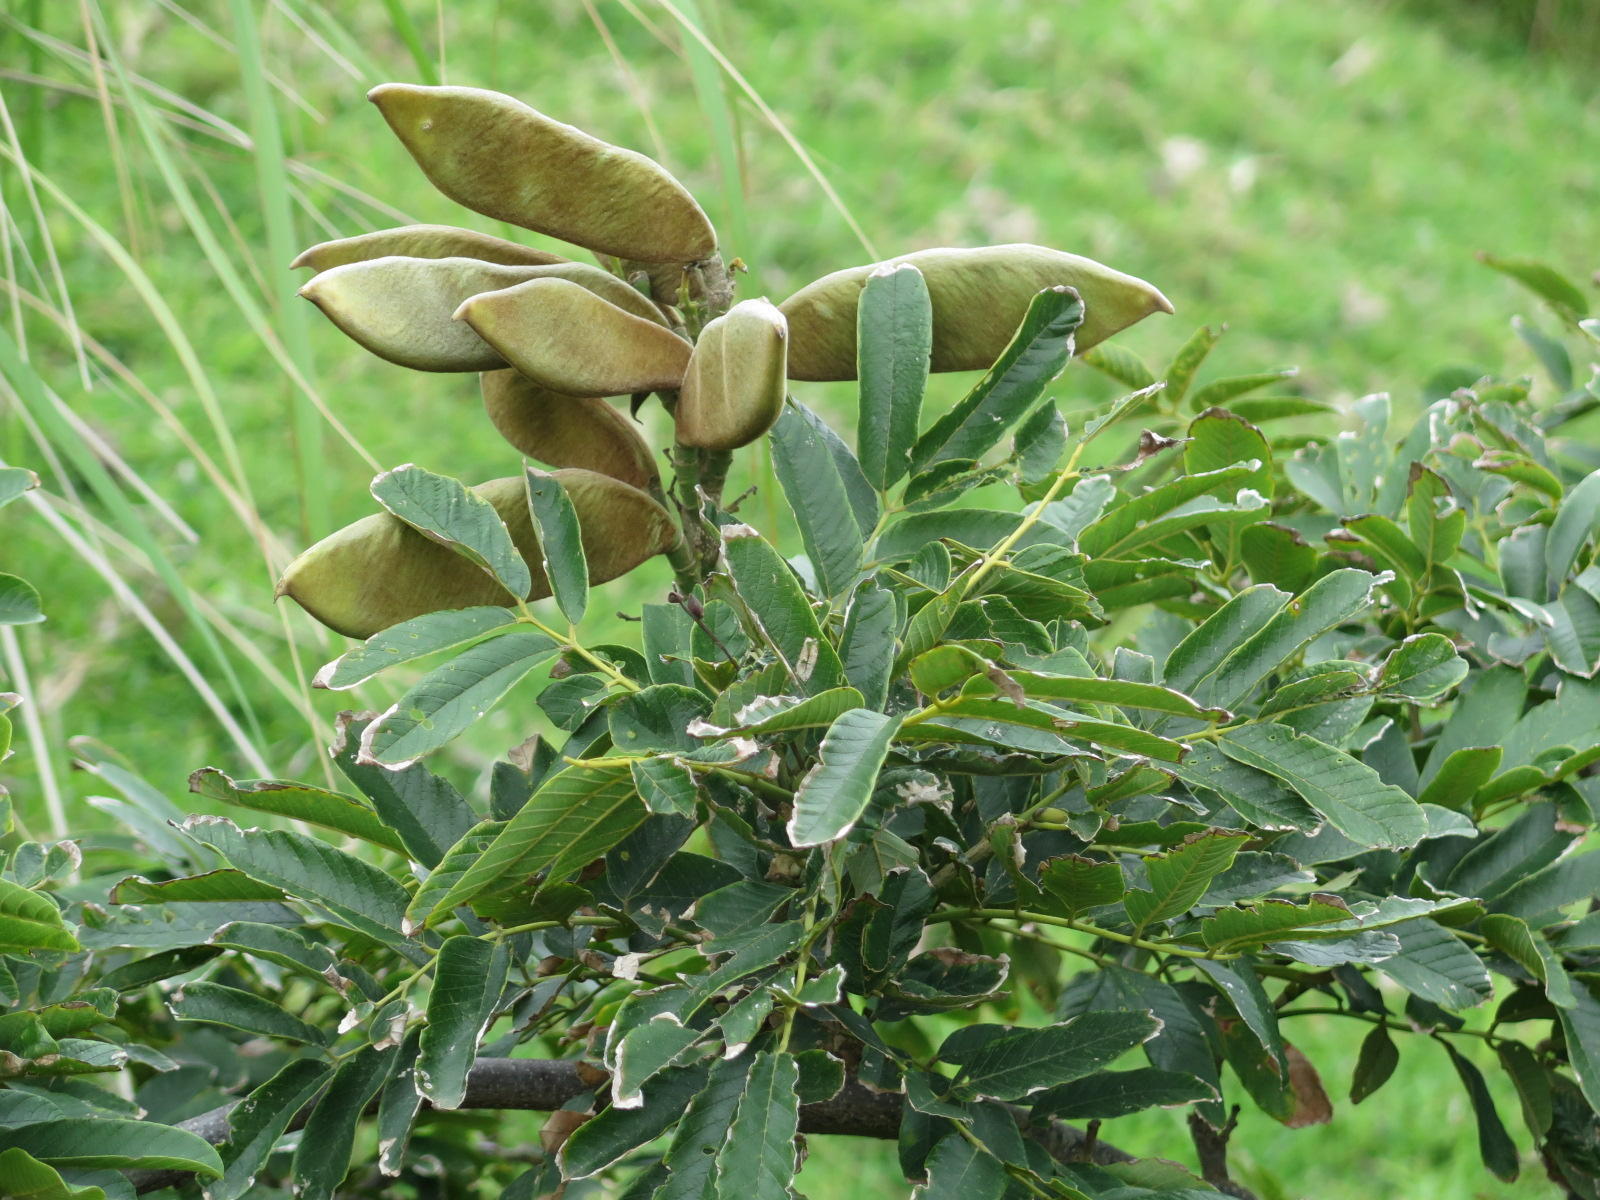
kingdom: Plantae
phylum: Tracheophyta
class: Magnoliopsida
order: Fabales
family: Fabaceae
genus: Millettia
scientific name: Millettia grandis
